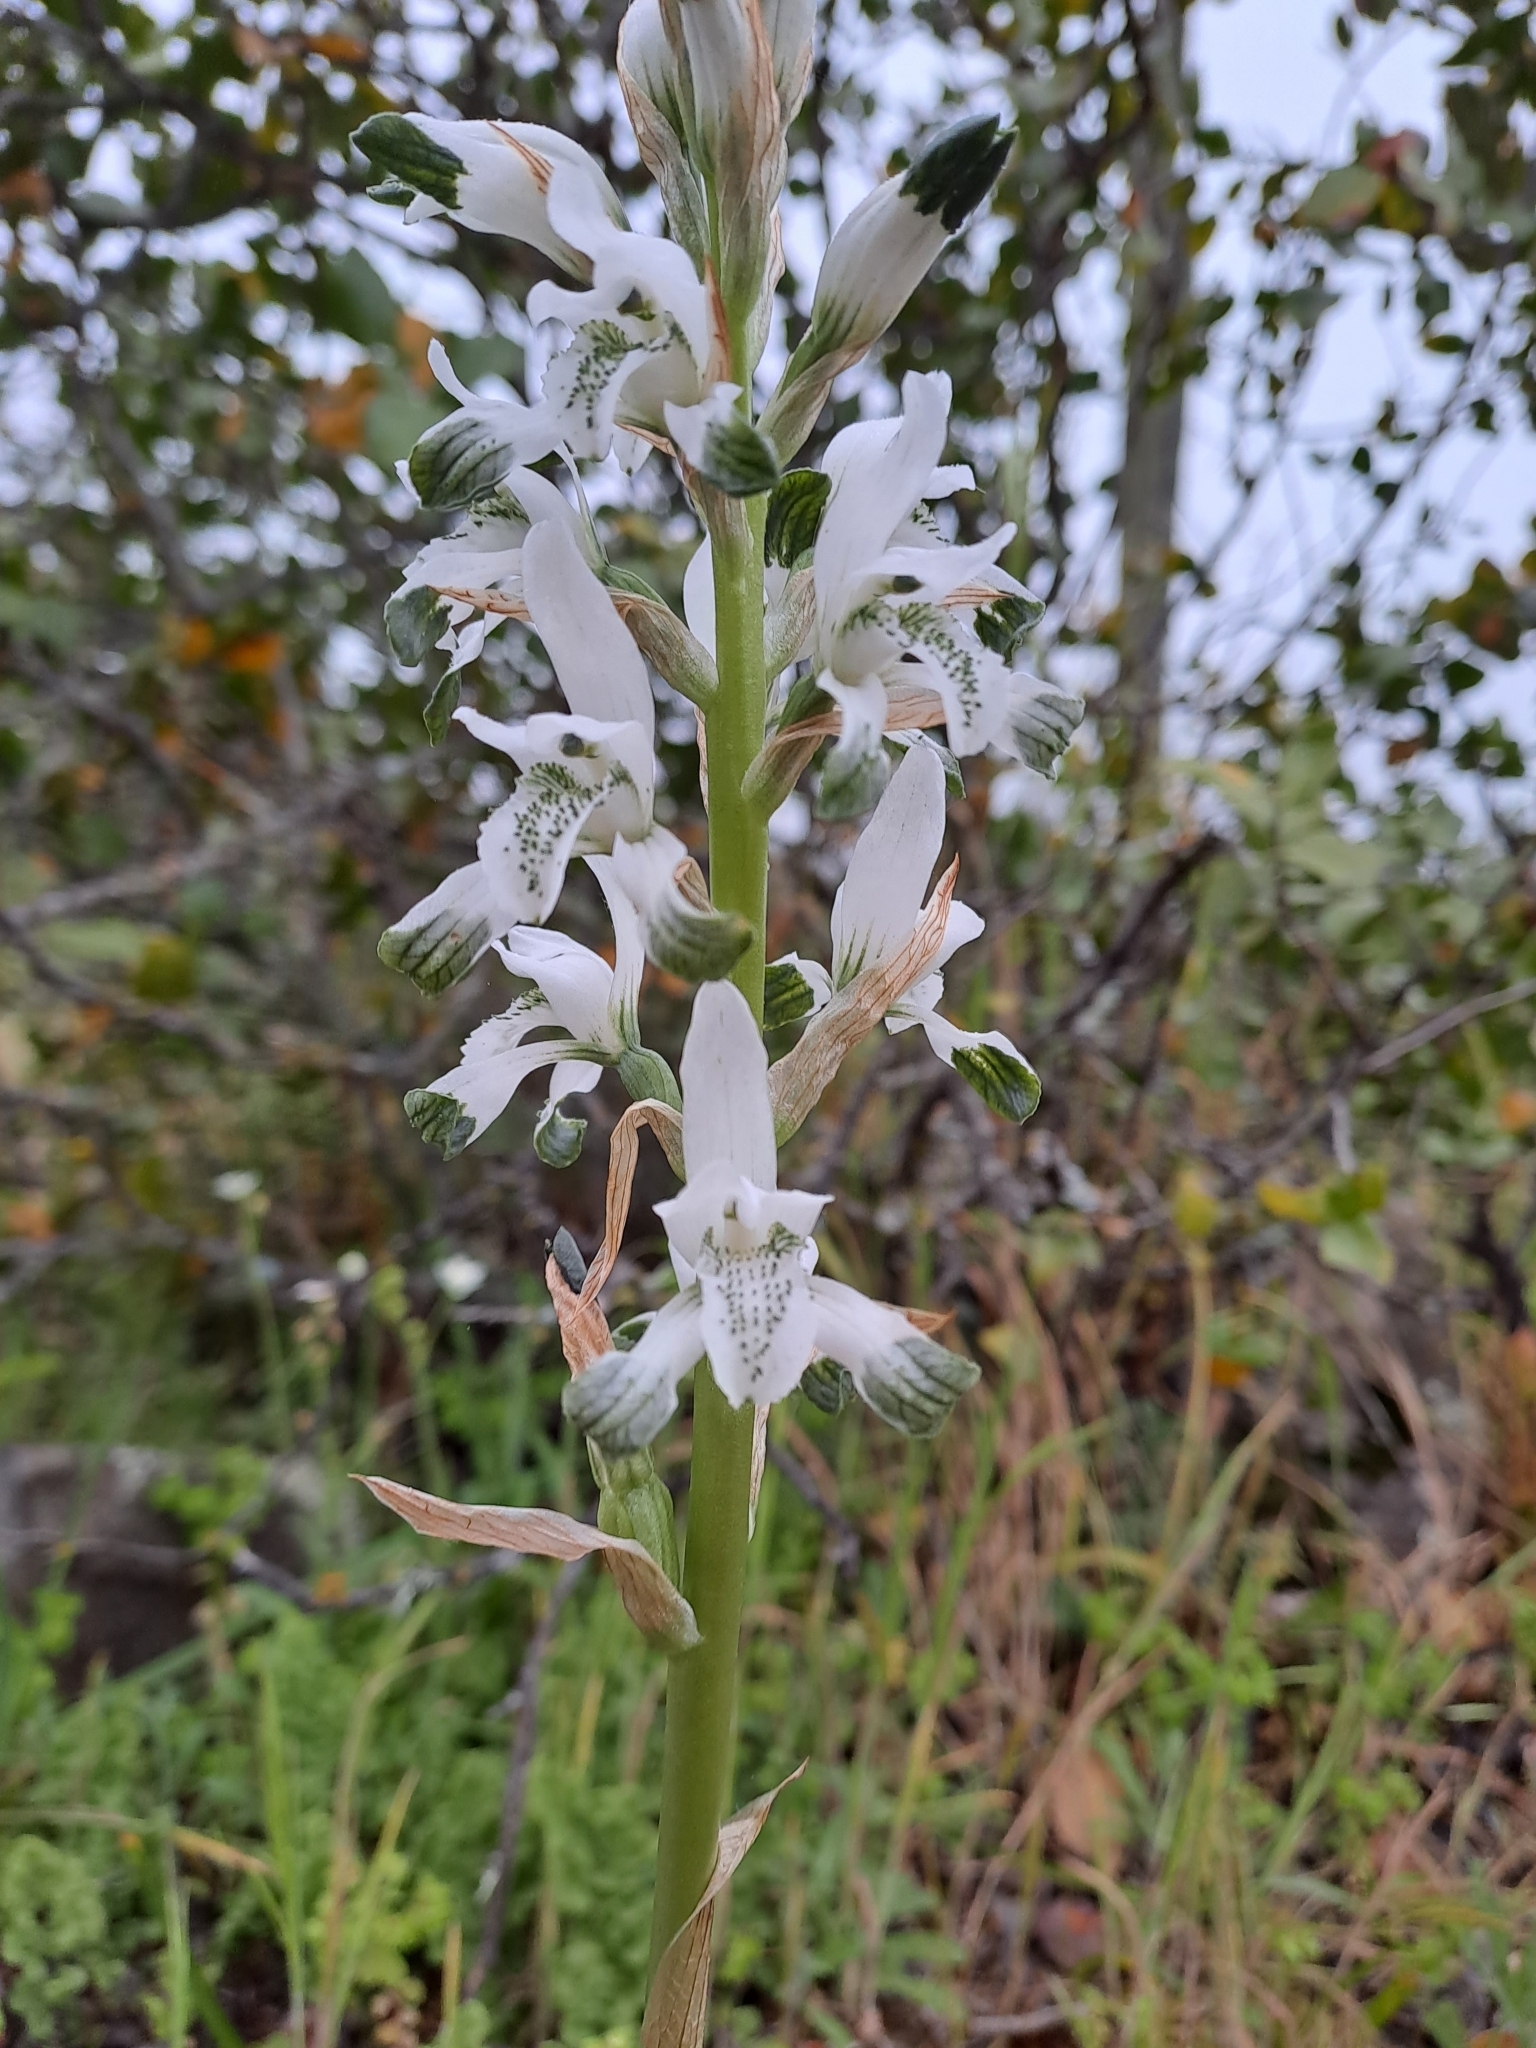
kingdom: Plantae
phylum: Tracheophyta
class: Liliopsida
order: Asparagales
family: Orchidaceae
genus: Chloraea
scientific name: Chloraea multiflora
